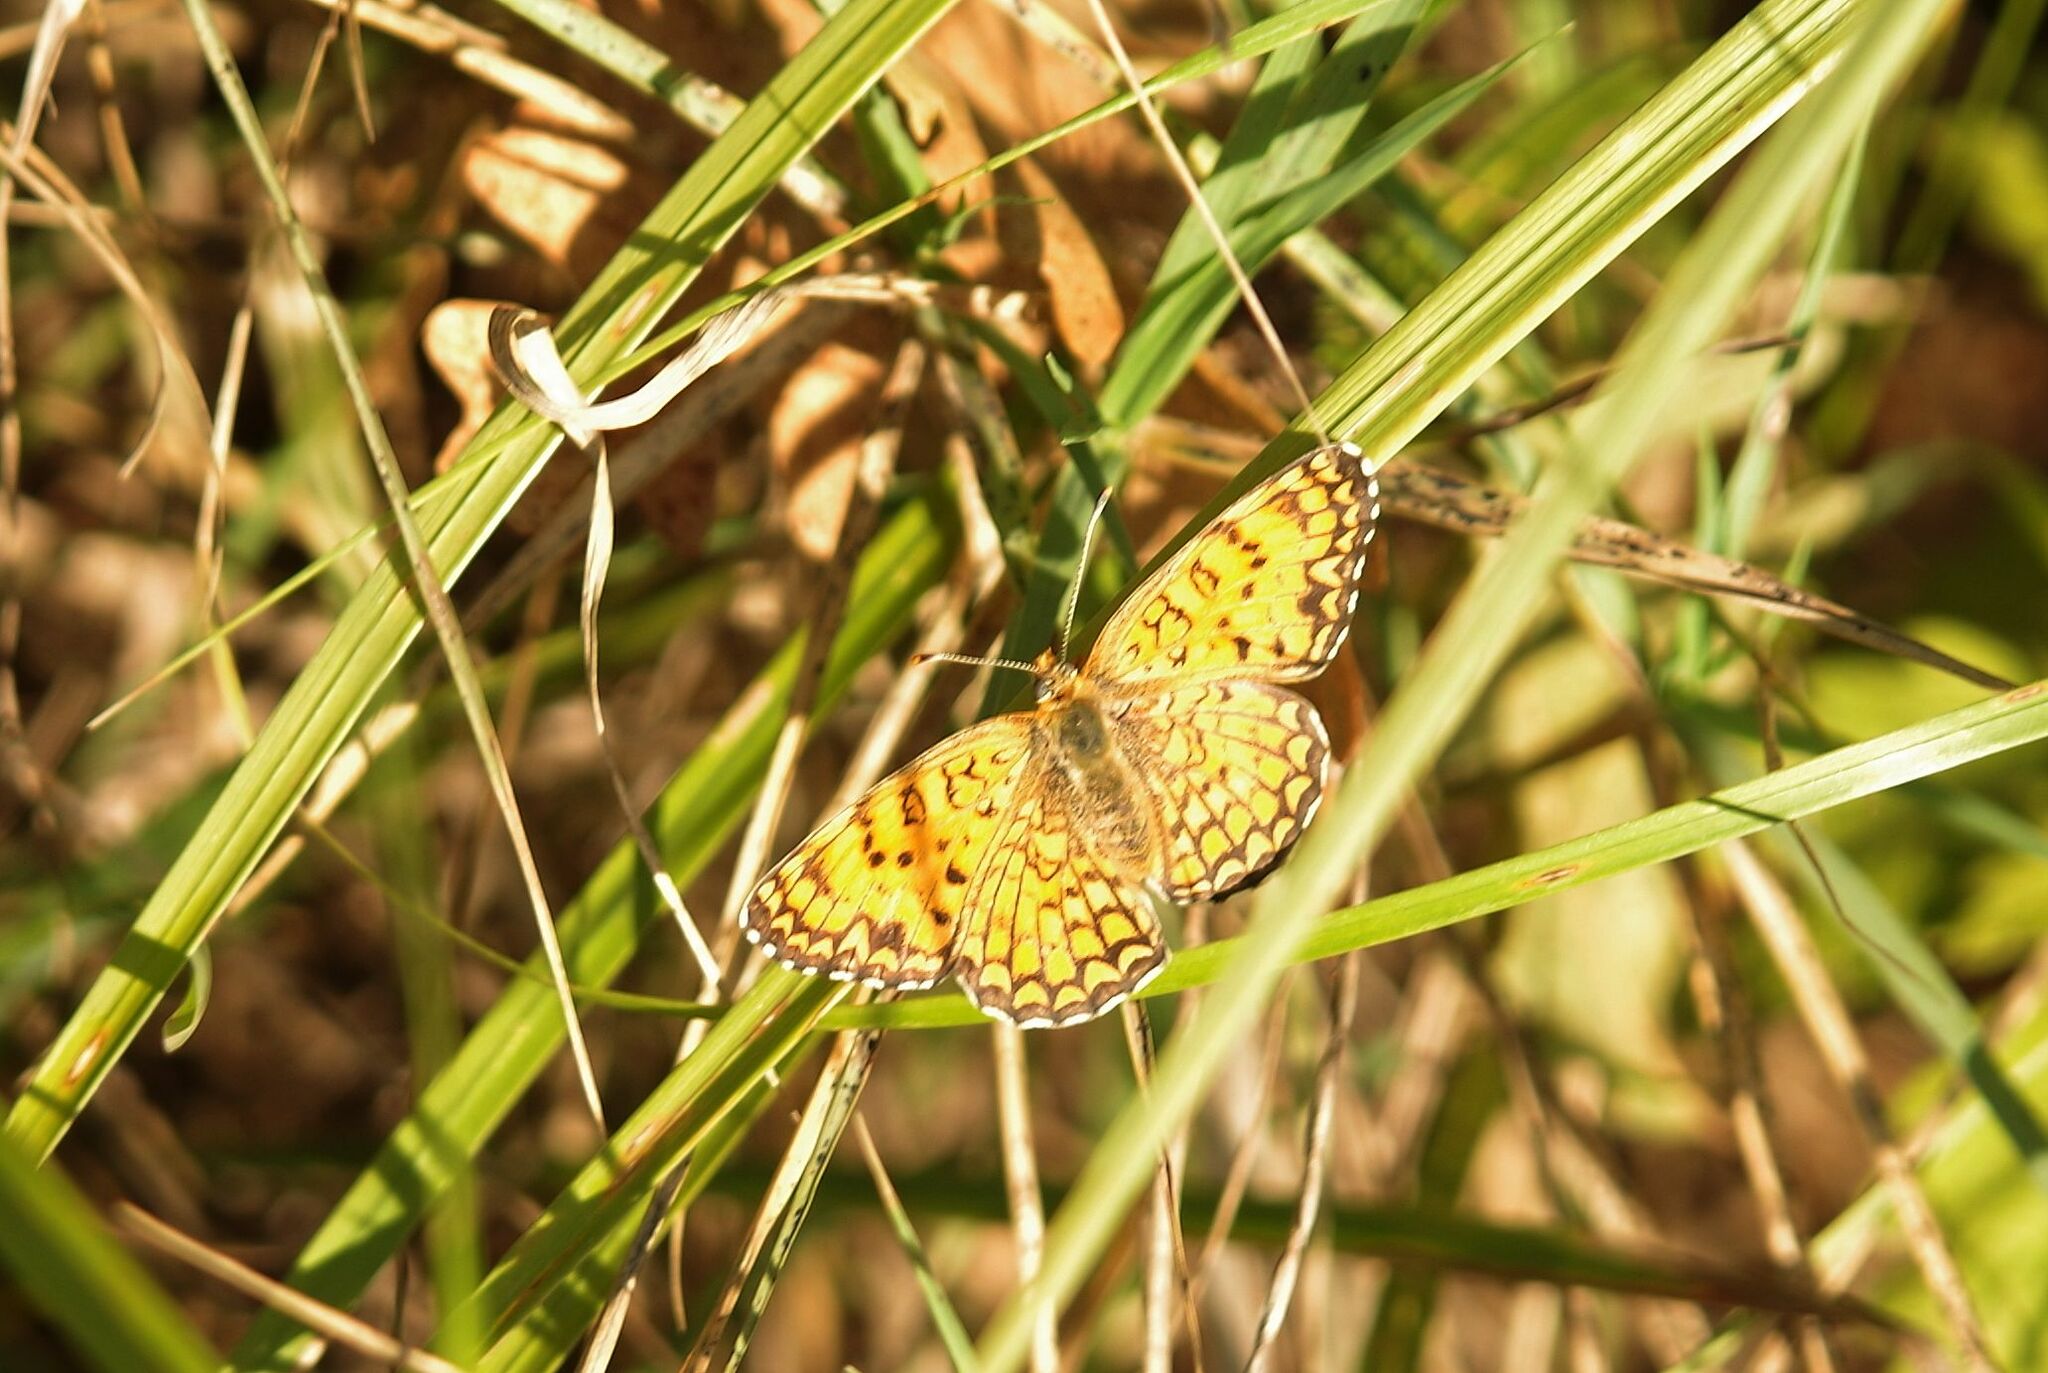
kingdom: Animalia
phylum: Arthropoda
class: Insecta
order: Lepidoptera
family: Nymphalidae
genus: Melitaea
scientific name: Melitaea phoebe
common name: Knapweed fritillary
